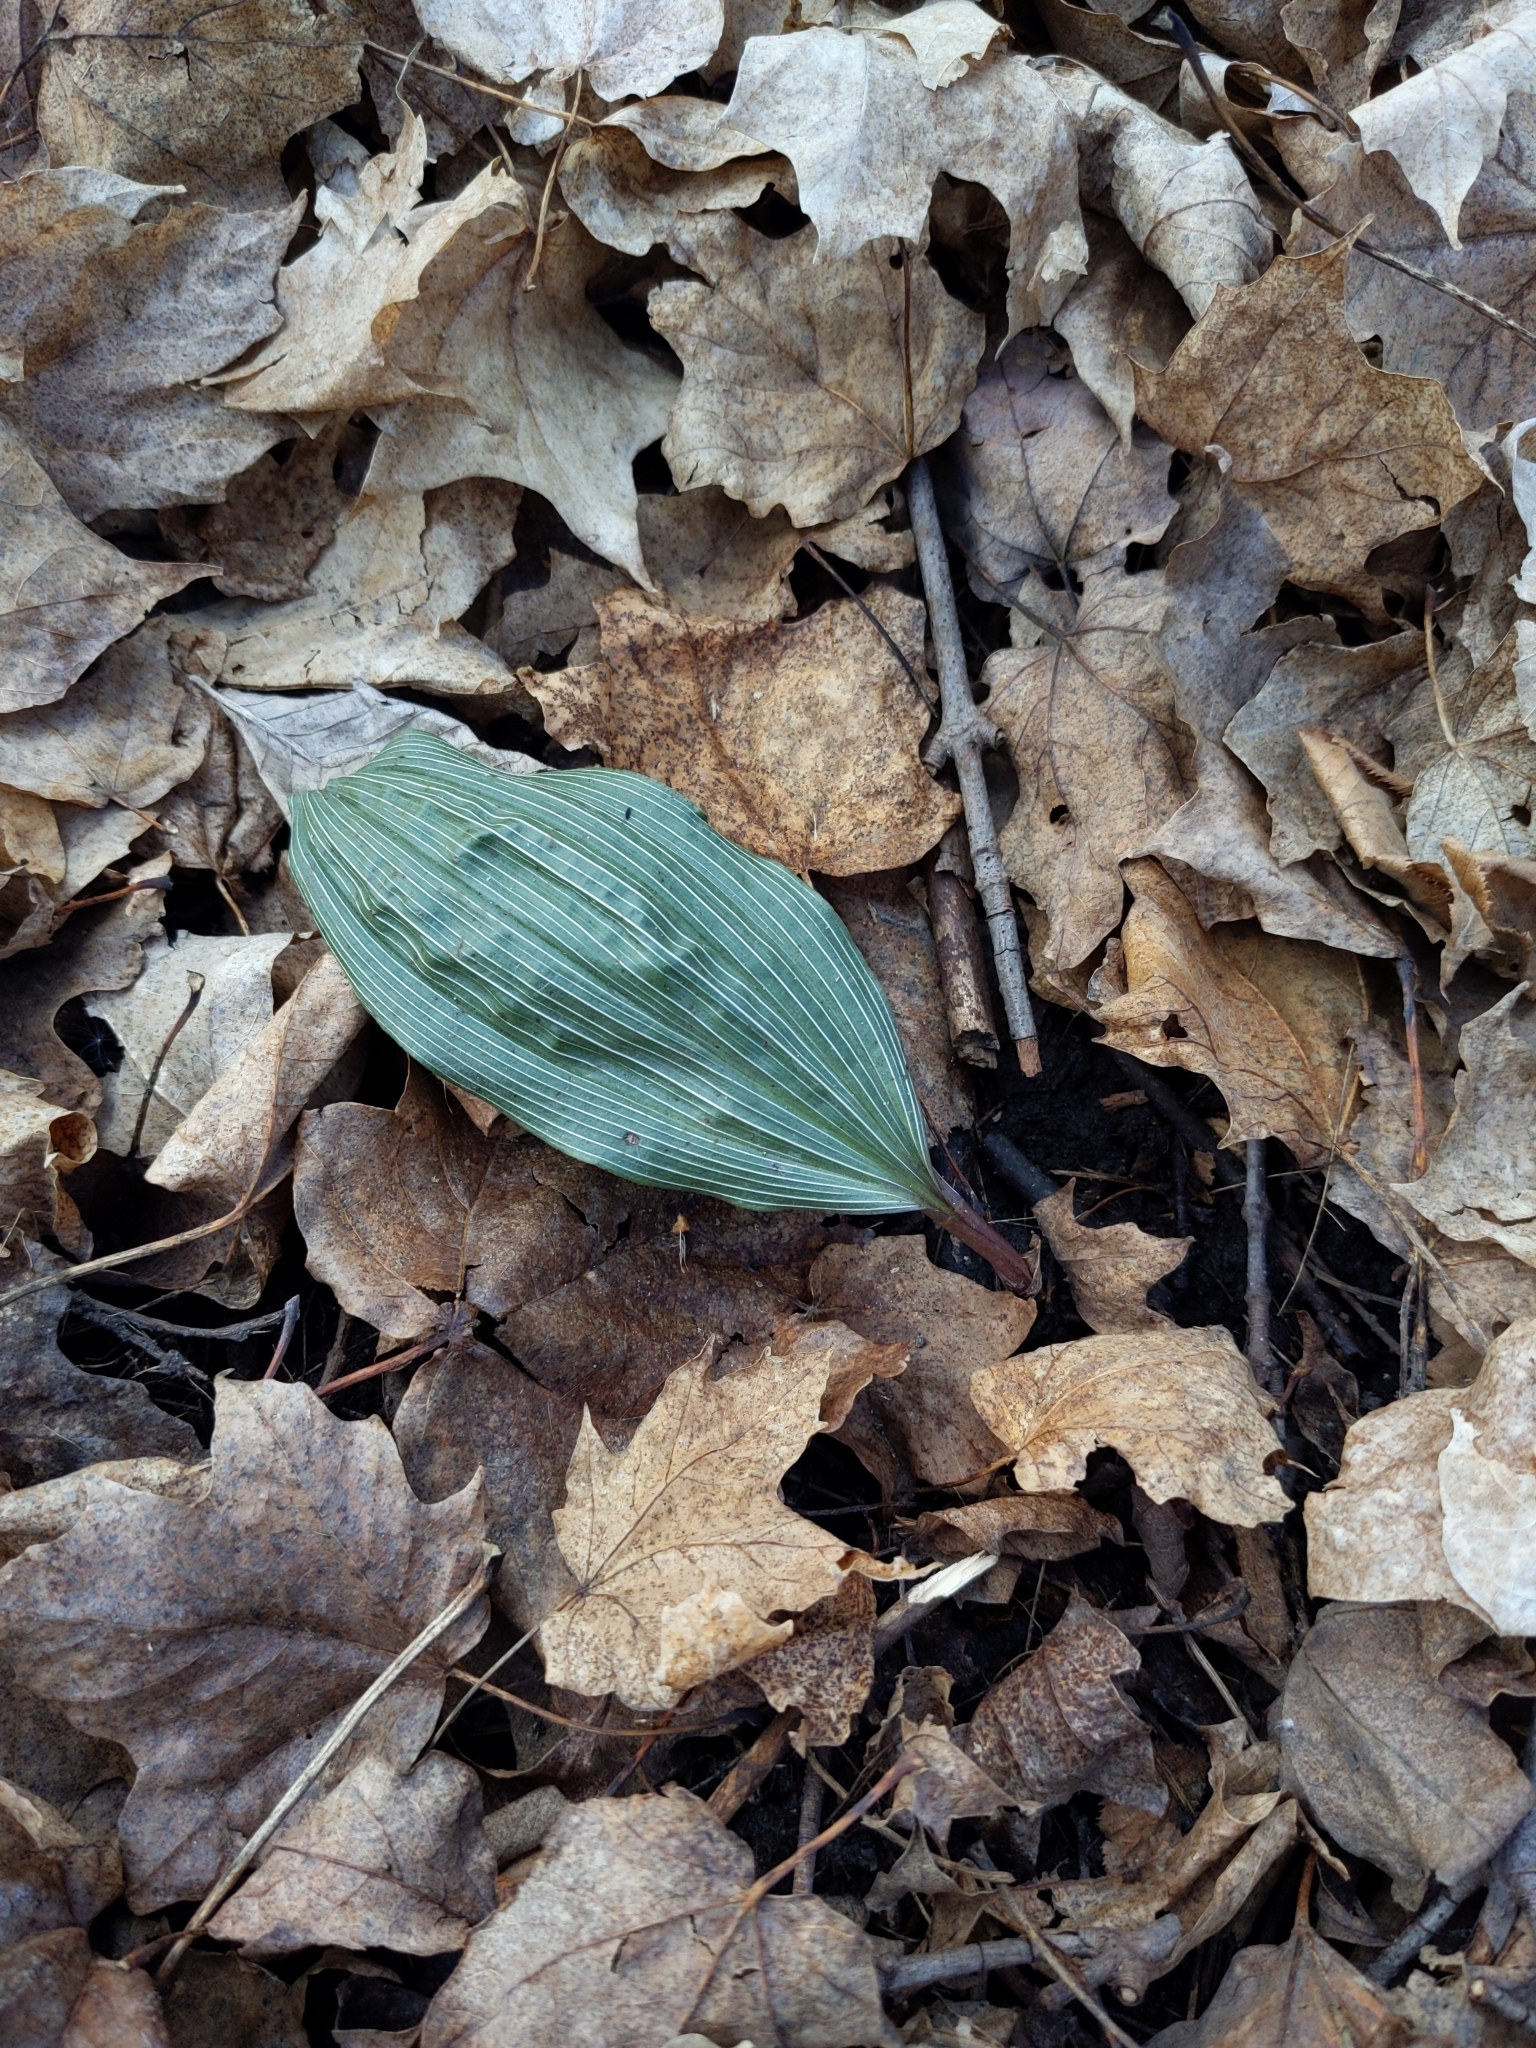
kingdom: Plantae
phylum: Tracheophyta
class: Liliopsida
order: Asparagales
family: Orchidaceae
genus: Aplectrum
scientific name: Aplectrum hyemale
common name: Adam-and-eve
